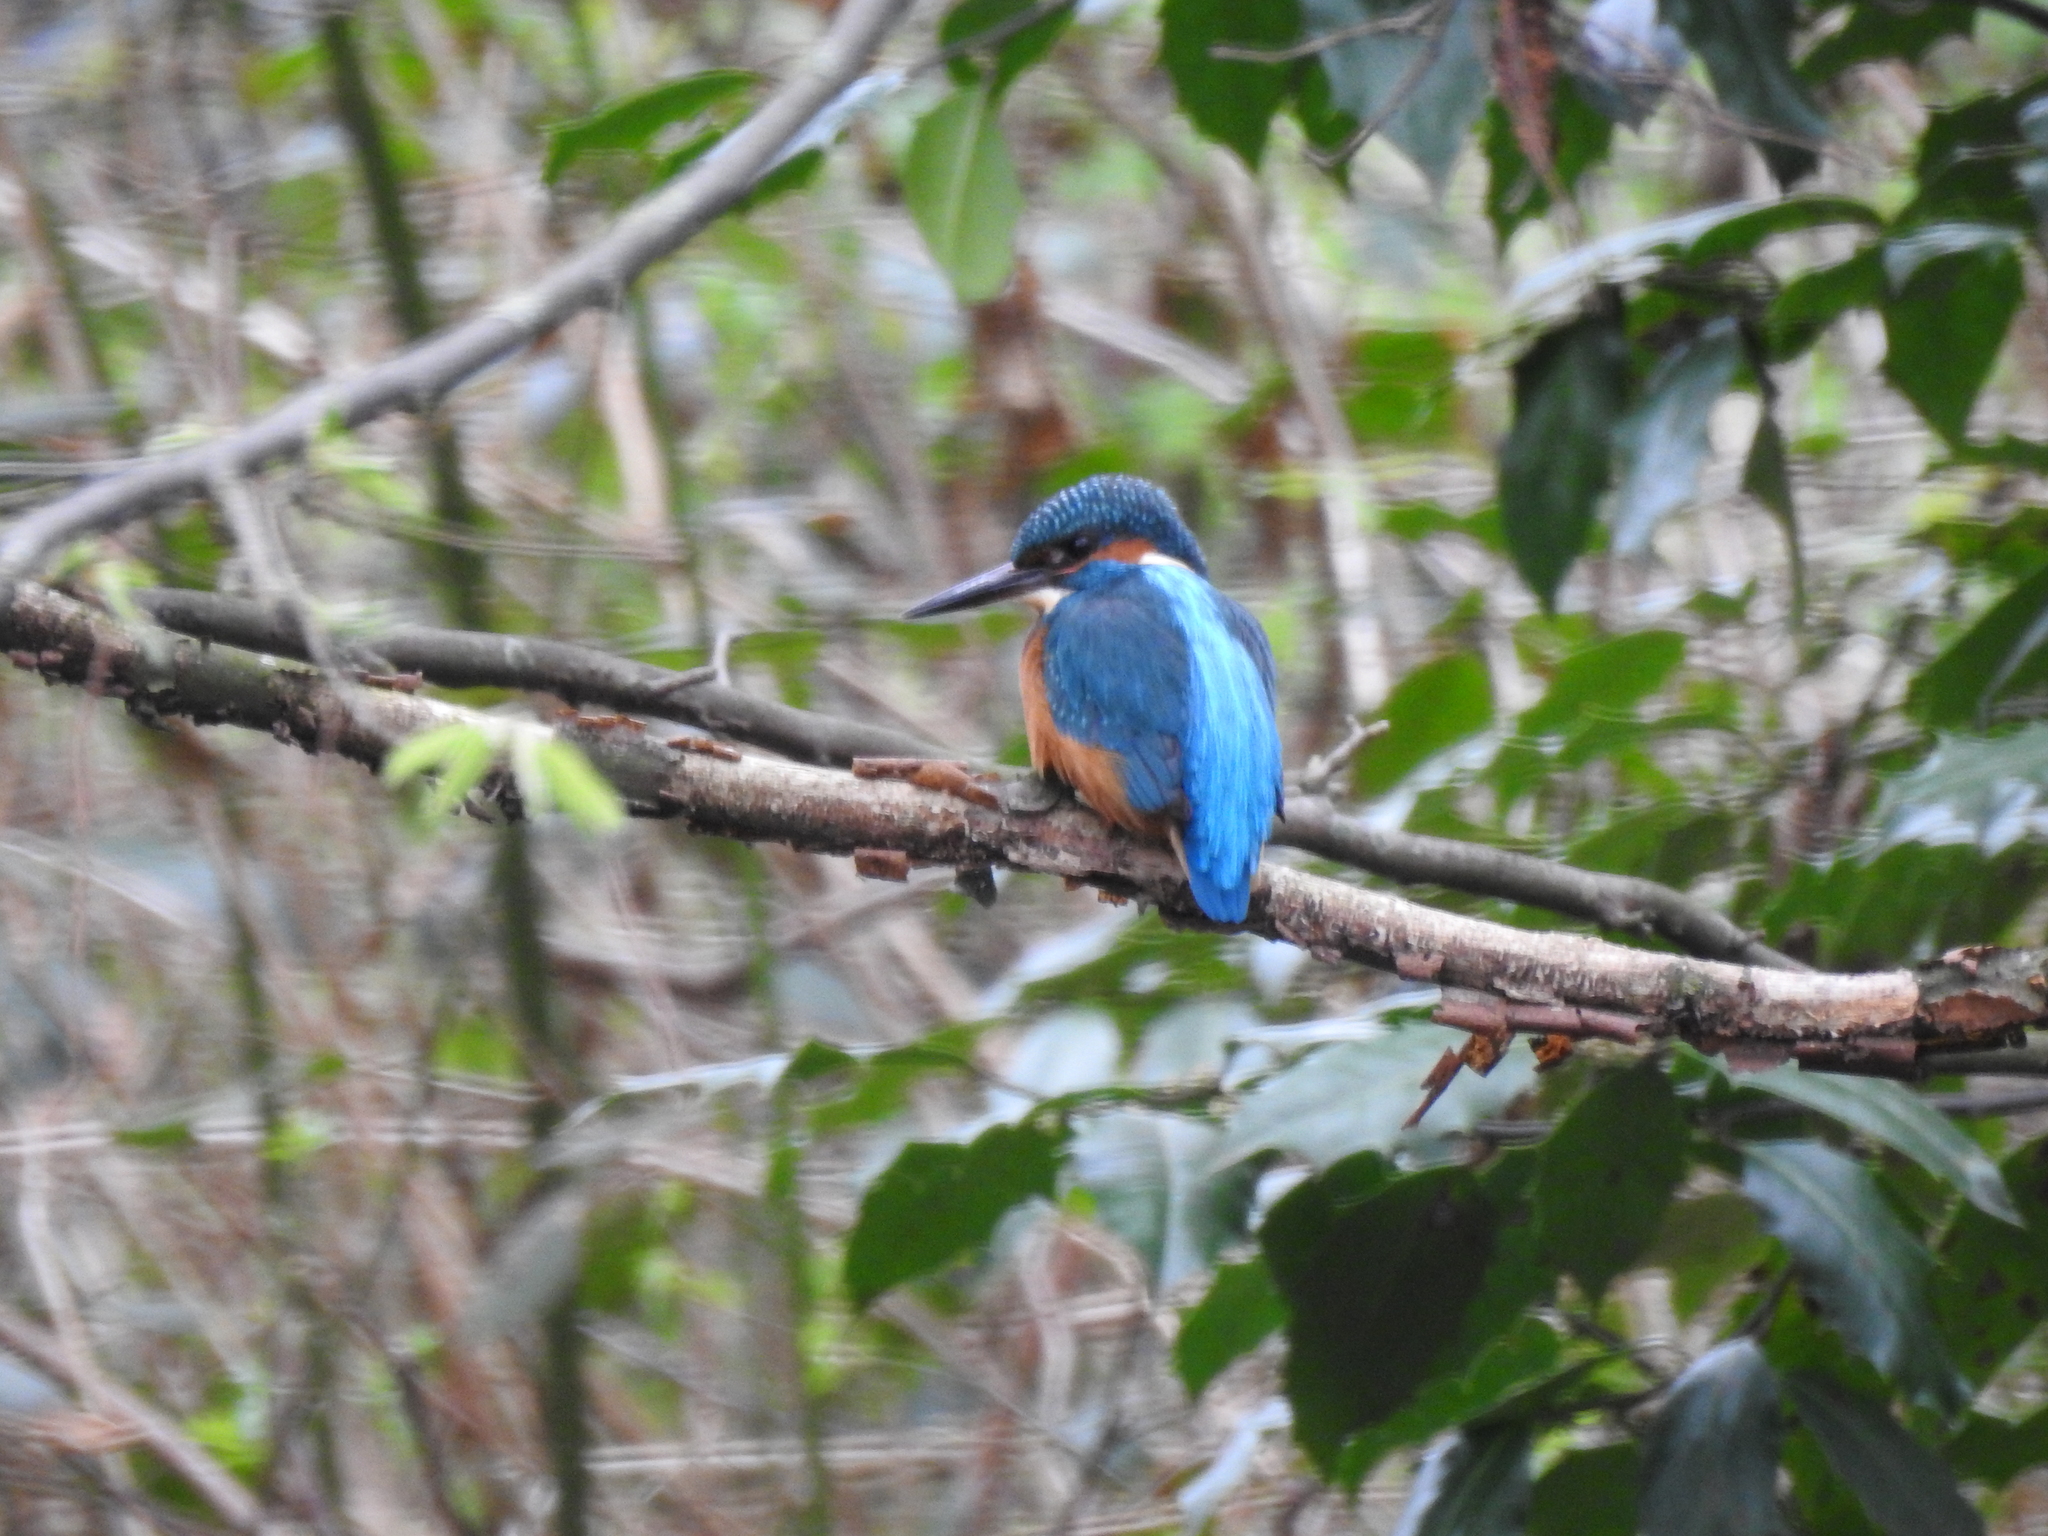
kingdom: Animalia
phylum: Chordata
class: Aves
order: Coraciiformes
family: Alcedinidae
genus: Alcedo
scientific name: Alcedo atthis
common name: Common kingfisher
